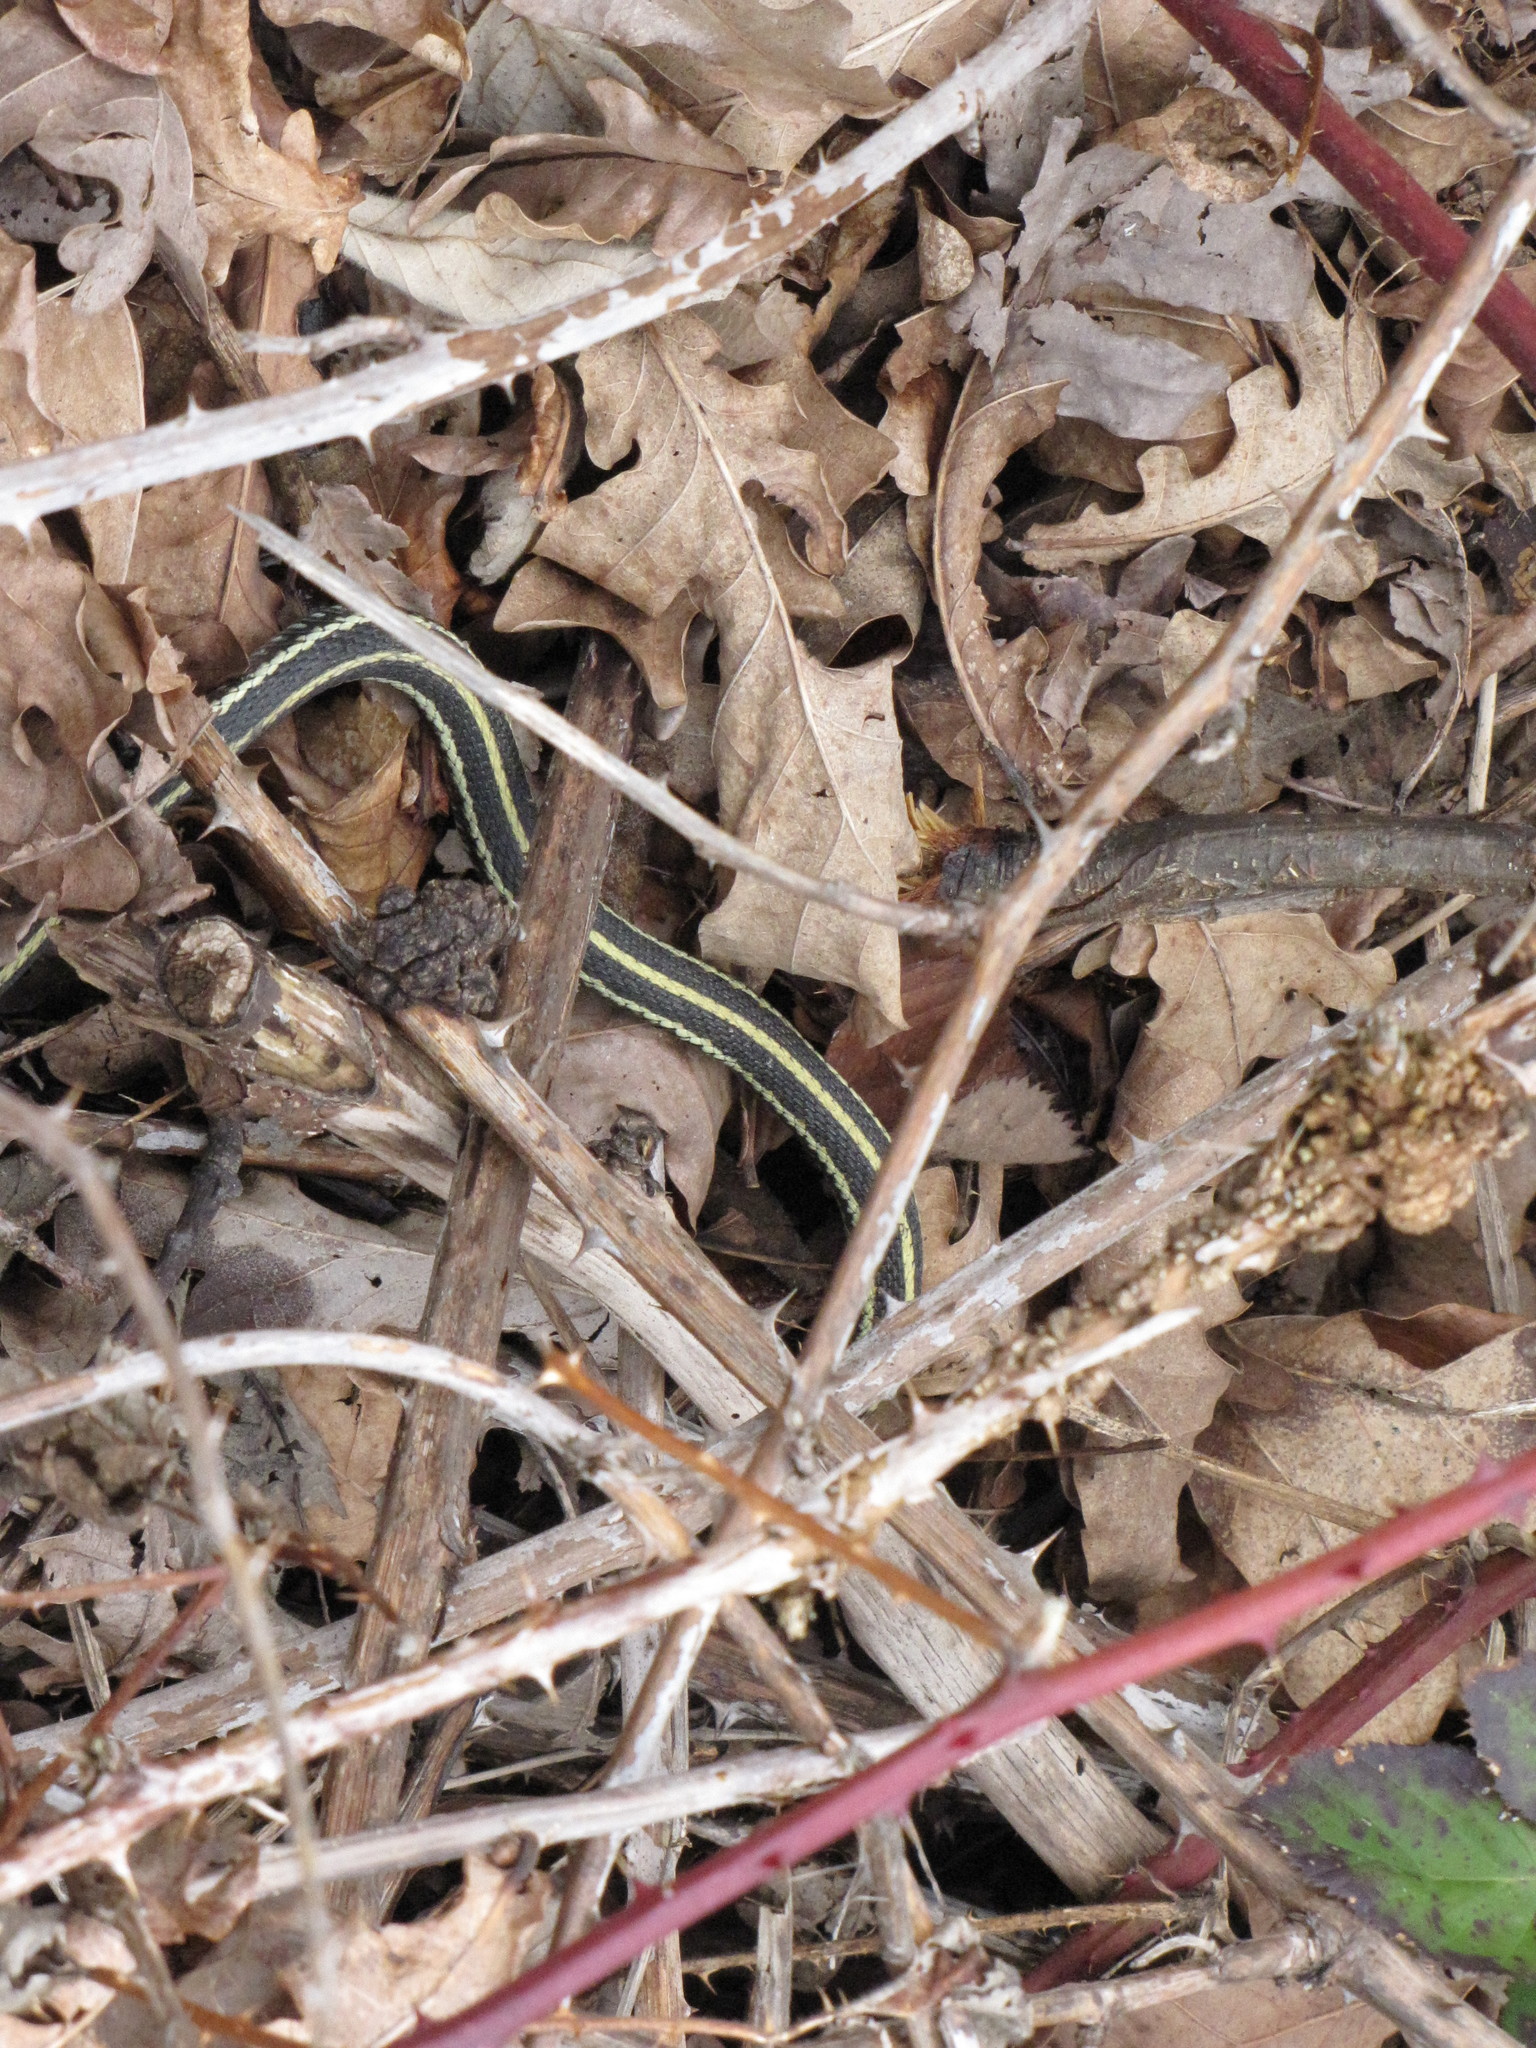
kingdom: Animalia
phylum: Chordata
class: Squamata
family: Colubridae
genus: Thamnophis
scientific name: Thamnophis sirtalis
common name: Common garter snake
